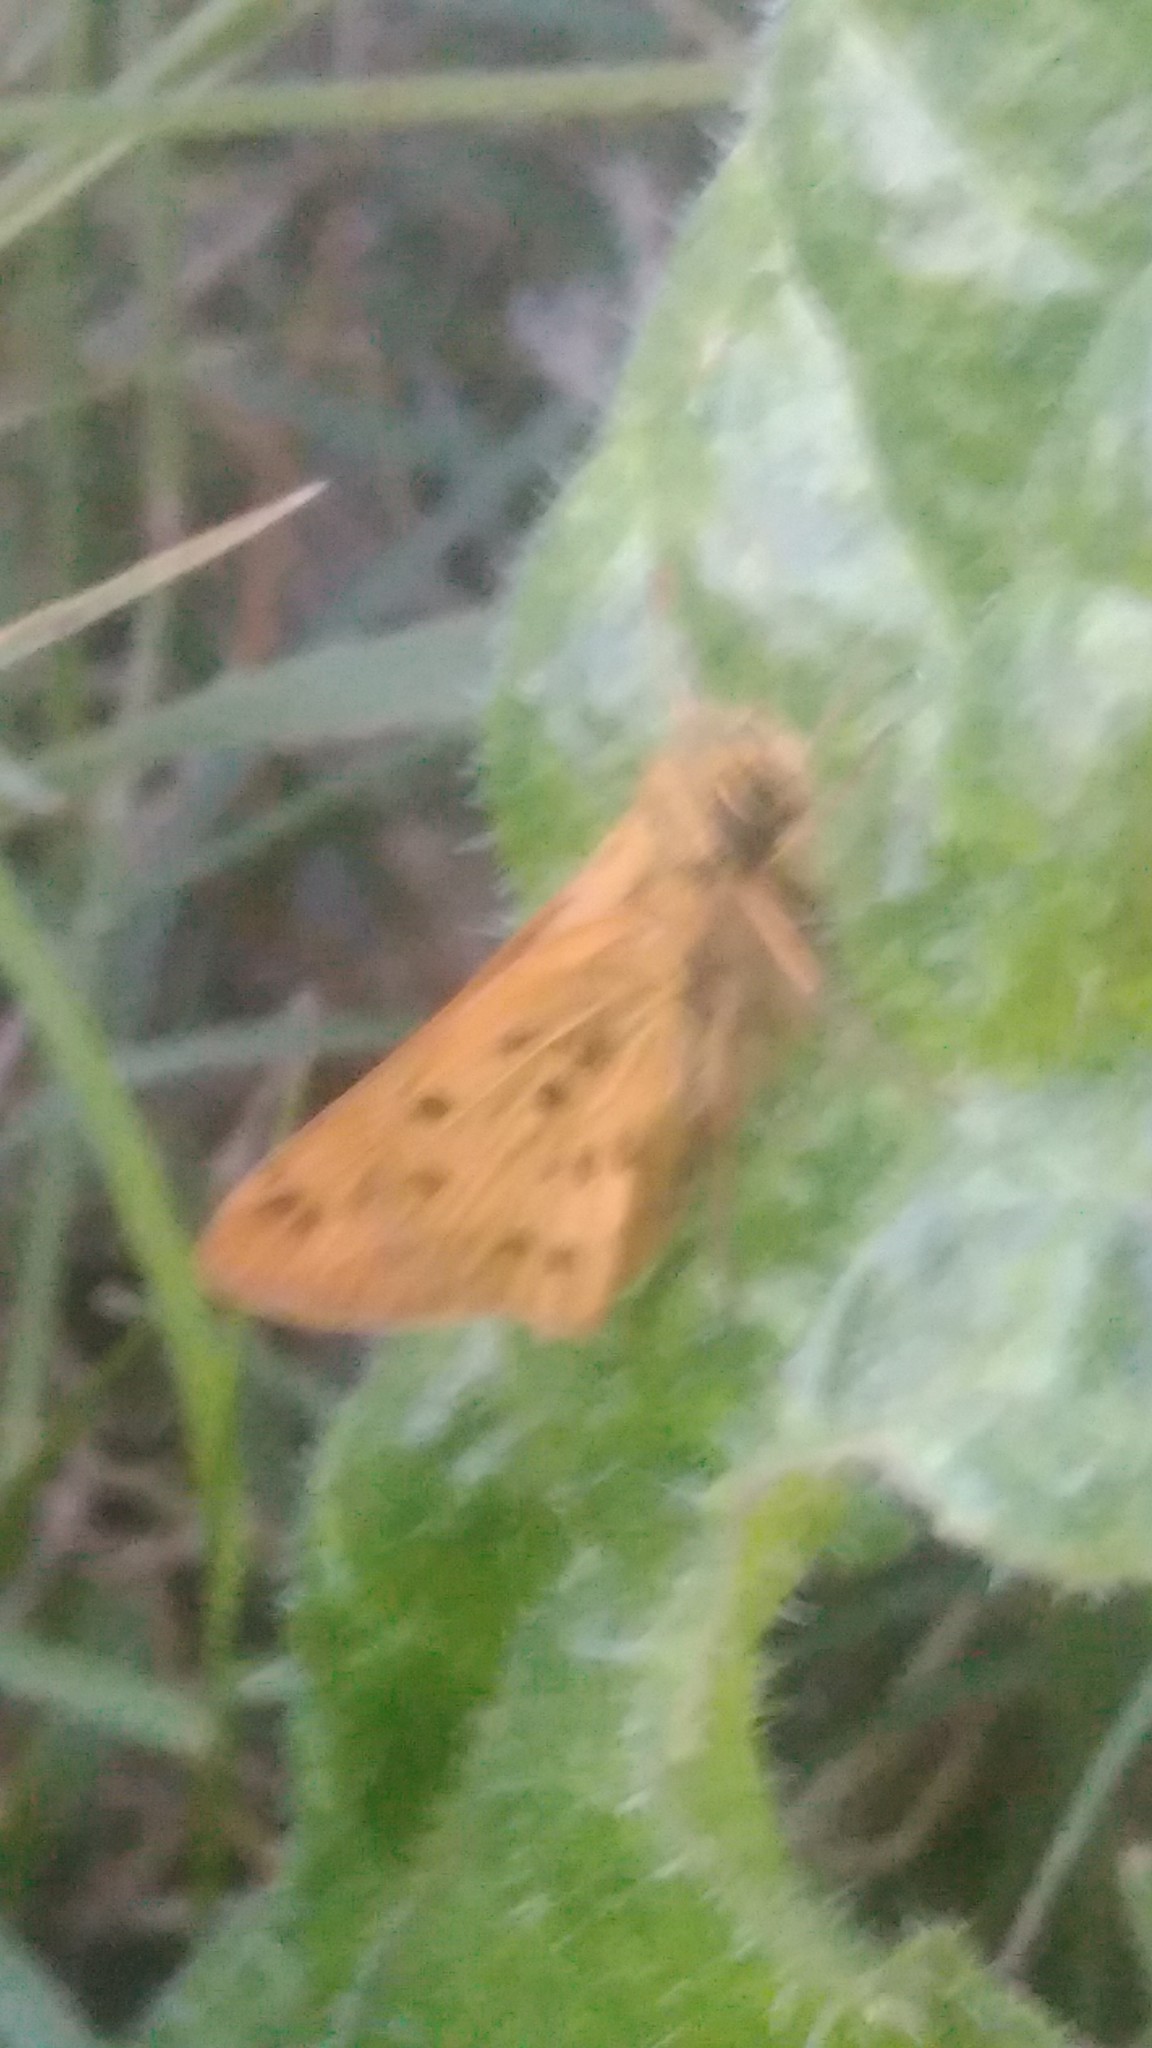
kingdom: Animalia
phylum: Arthropoda
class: Insecta
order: Lepidoptera
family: Hesperiidae
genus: Hylephila
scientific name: Hylephila phyleus
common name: Fiery skipper
